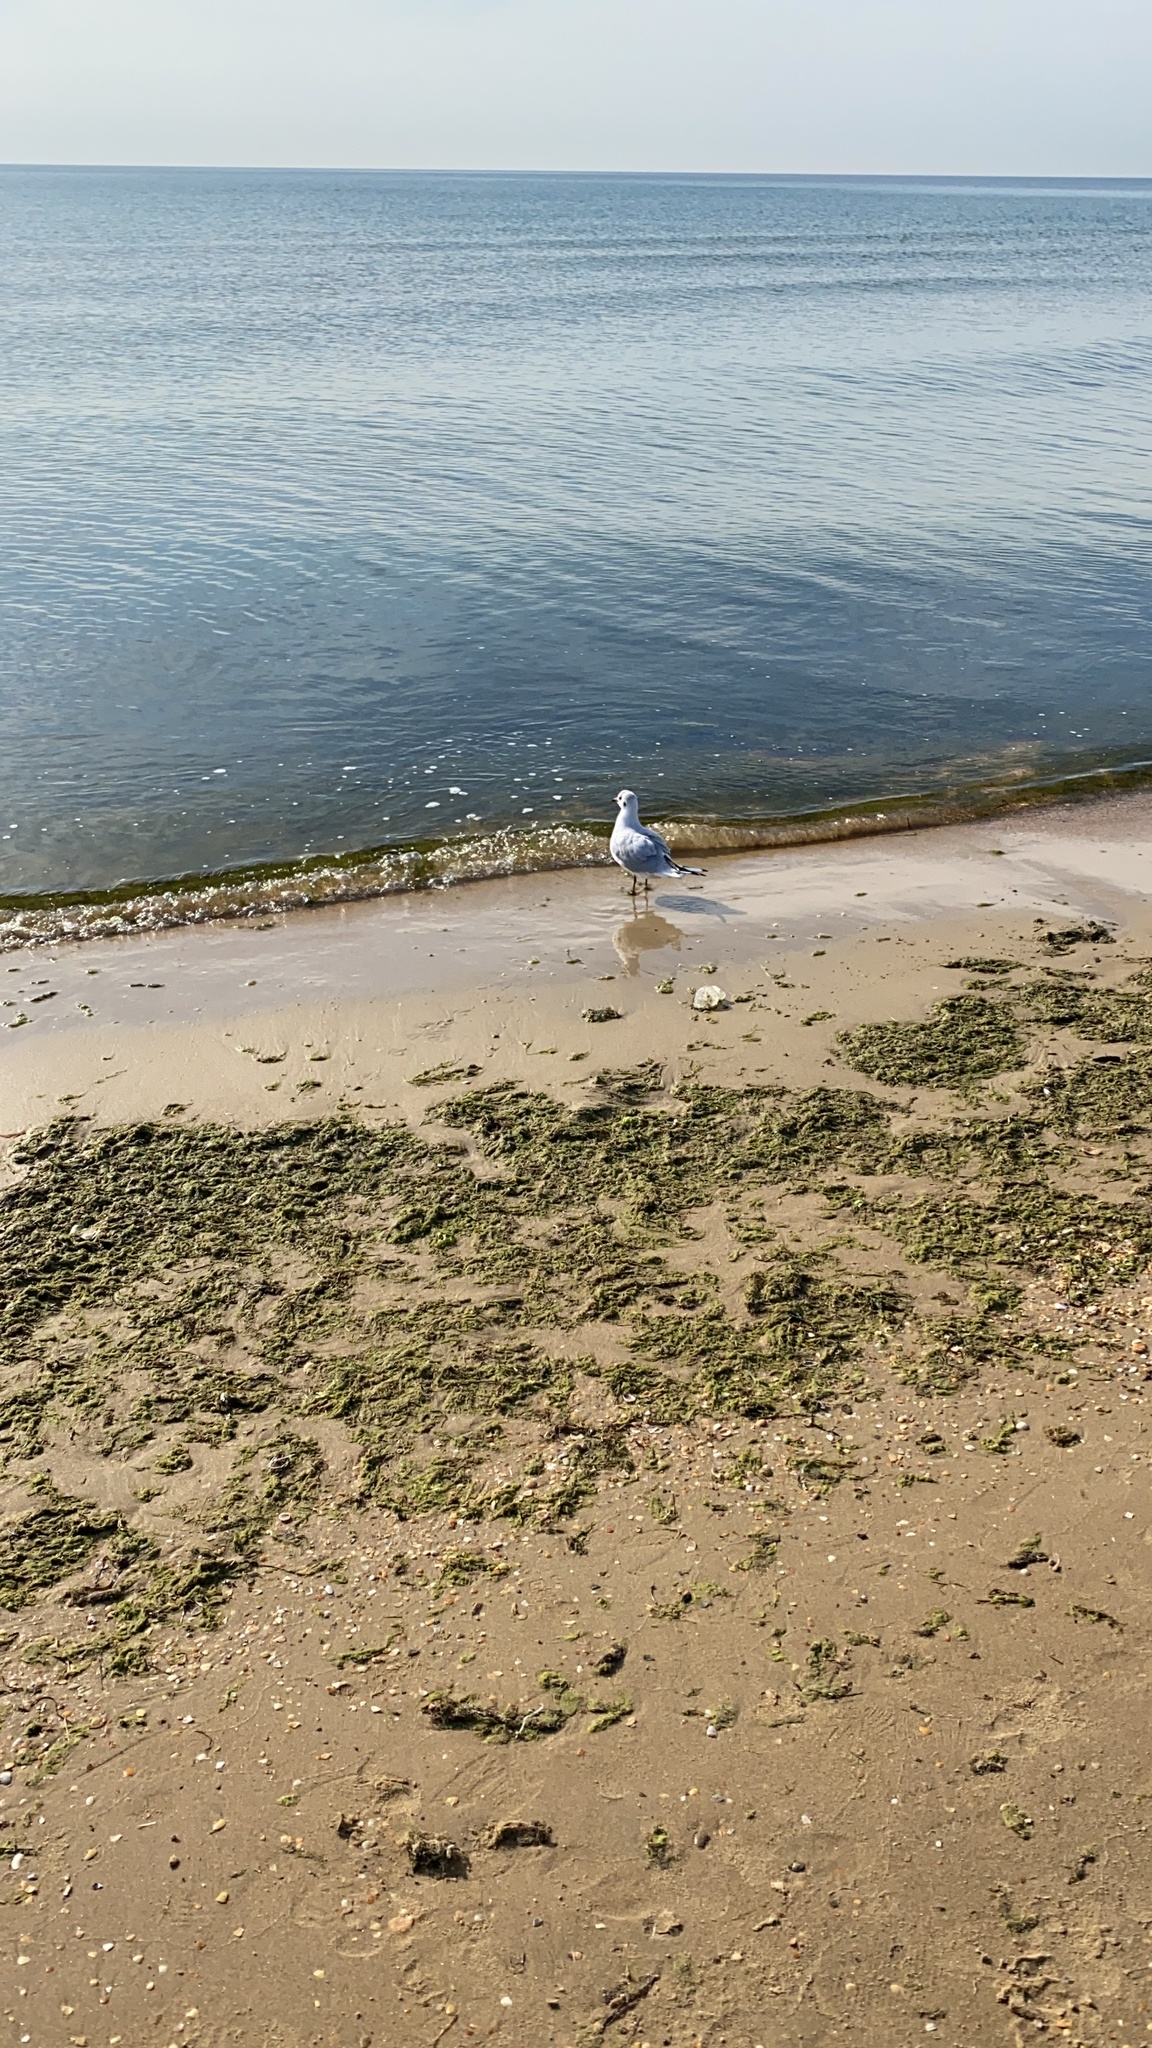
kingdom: Animalia
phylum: Chordata
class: Aves
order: Charadriiformes
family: Laridae
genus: Chroicocephalus
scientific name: Chroicocephalus ridibundus
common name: Black-headed gull
